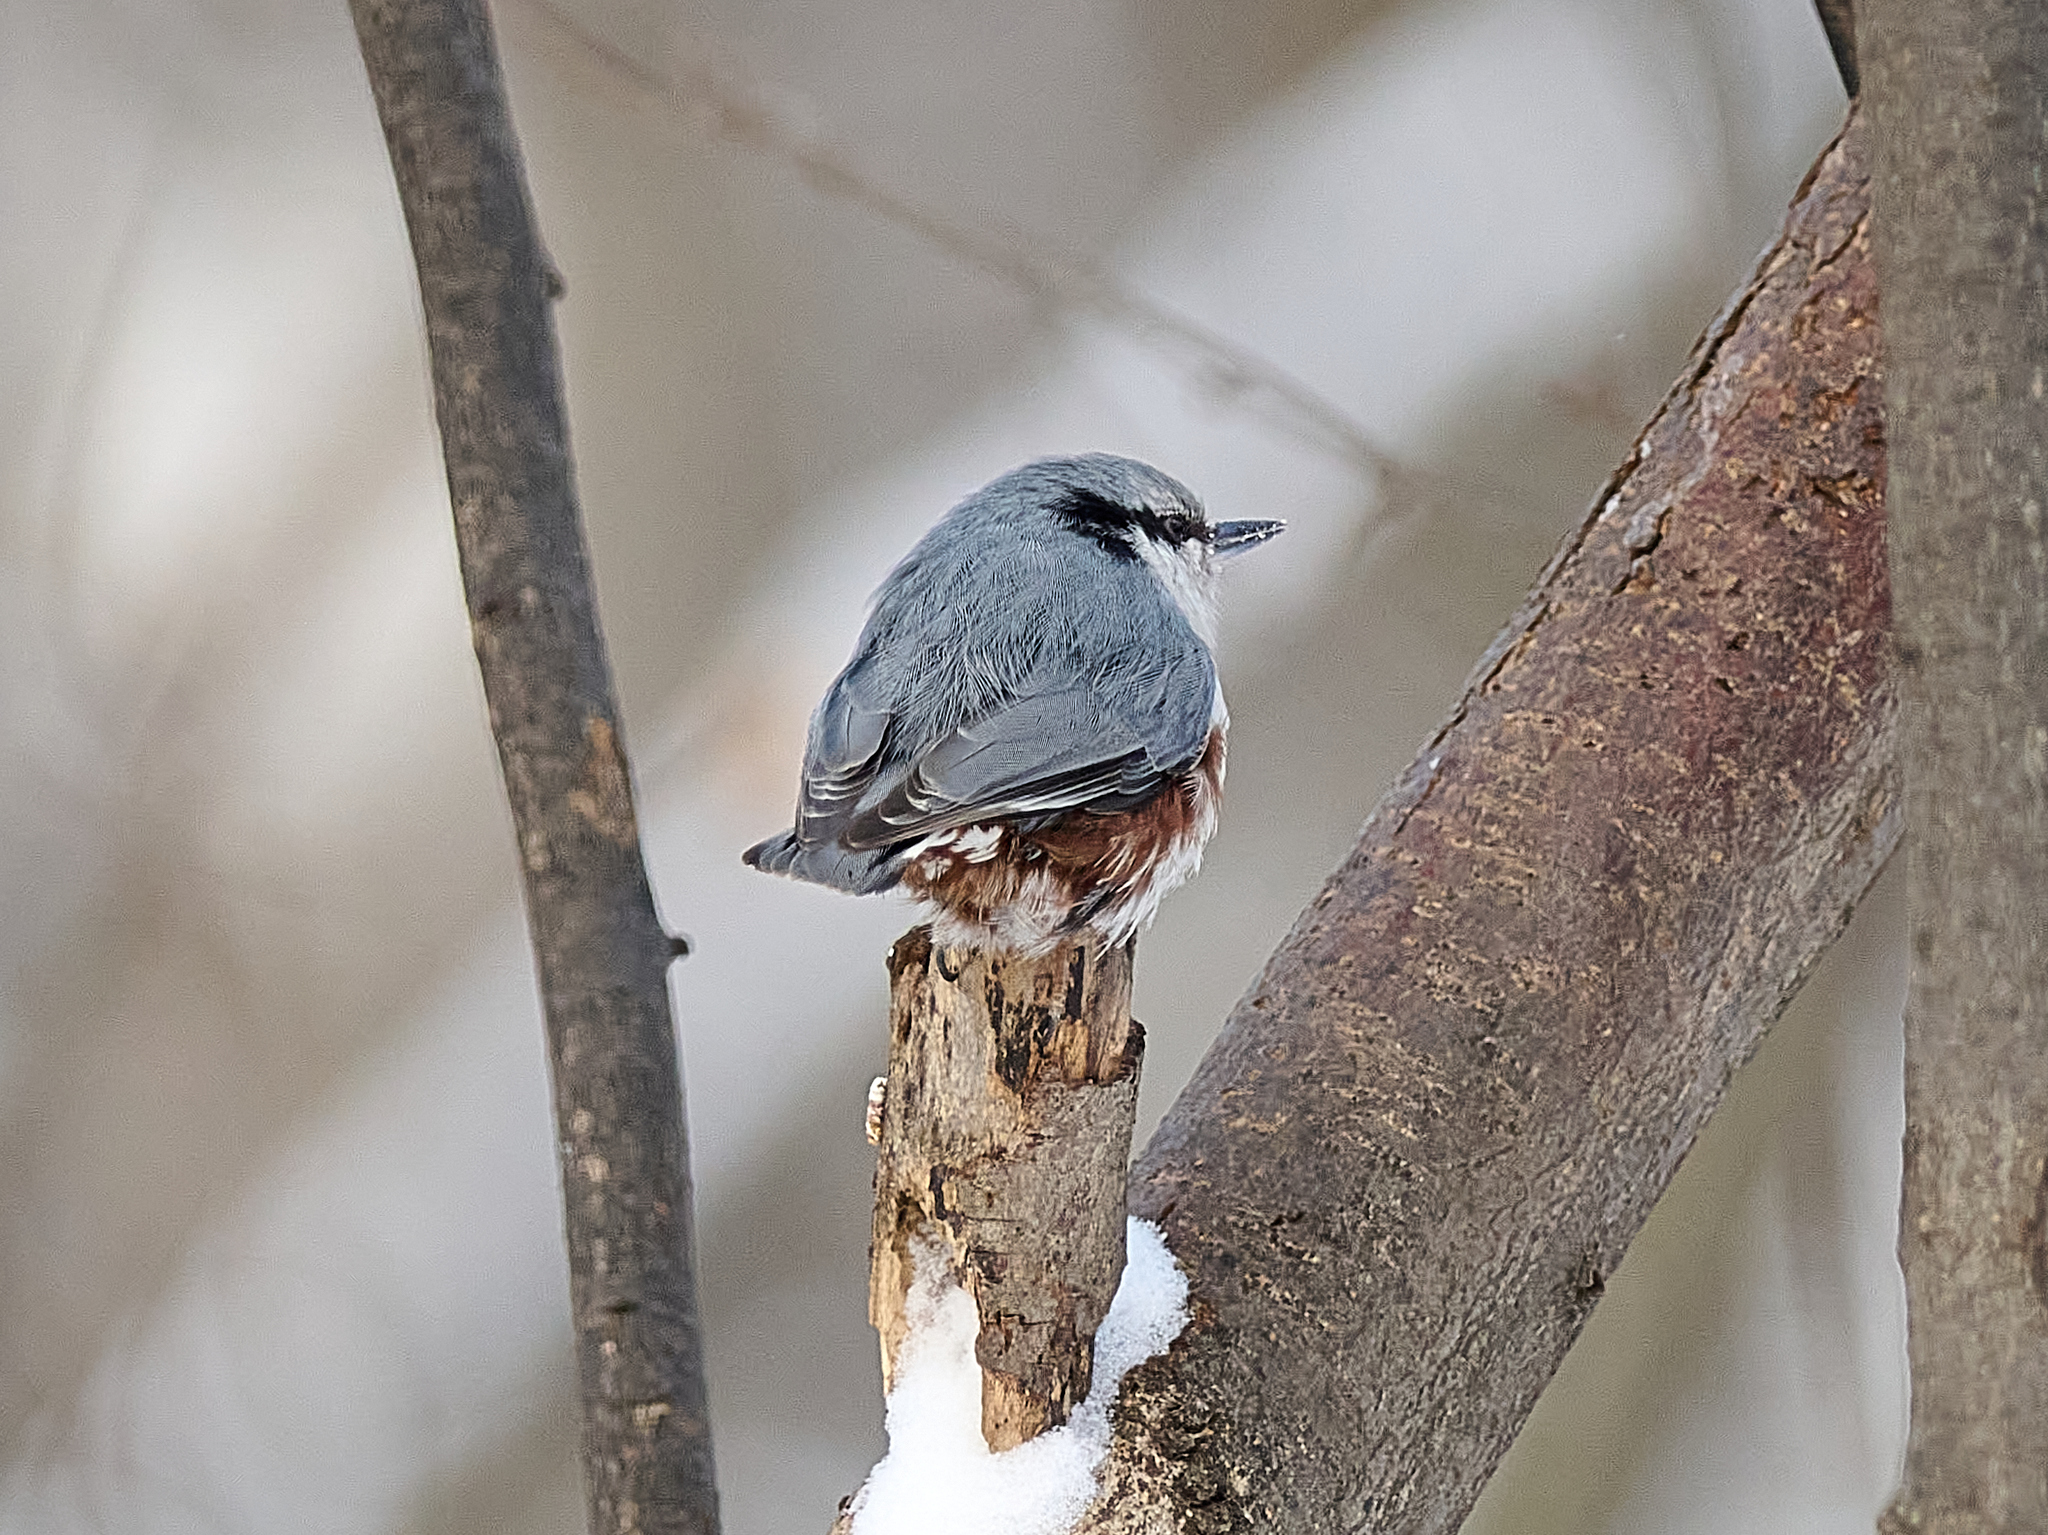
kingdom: Animalia
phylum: Chordata
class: Aves
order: Passeriformes
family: Sittidae
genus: Sitta
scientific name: Sitta europaea
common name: Eurasian nuthatch
